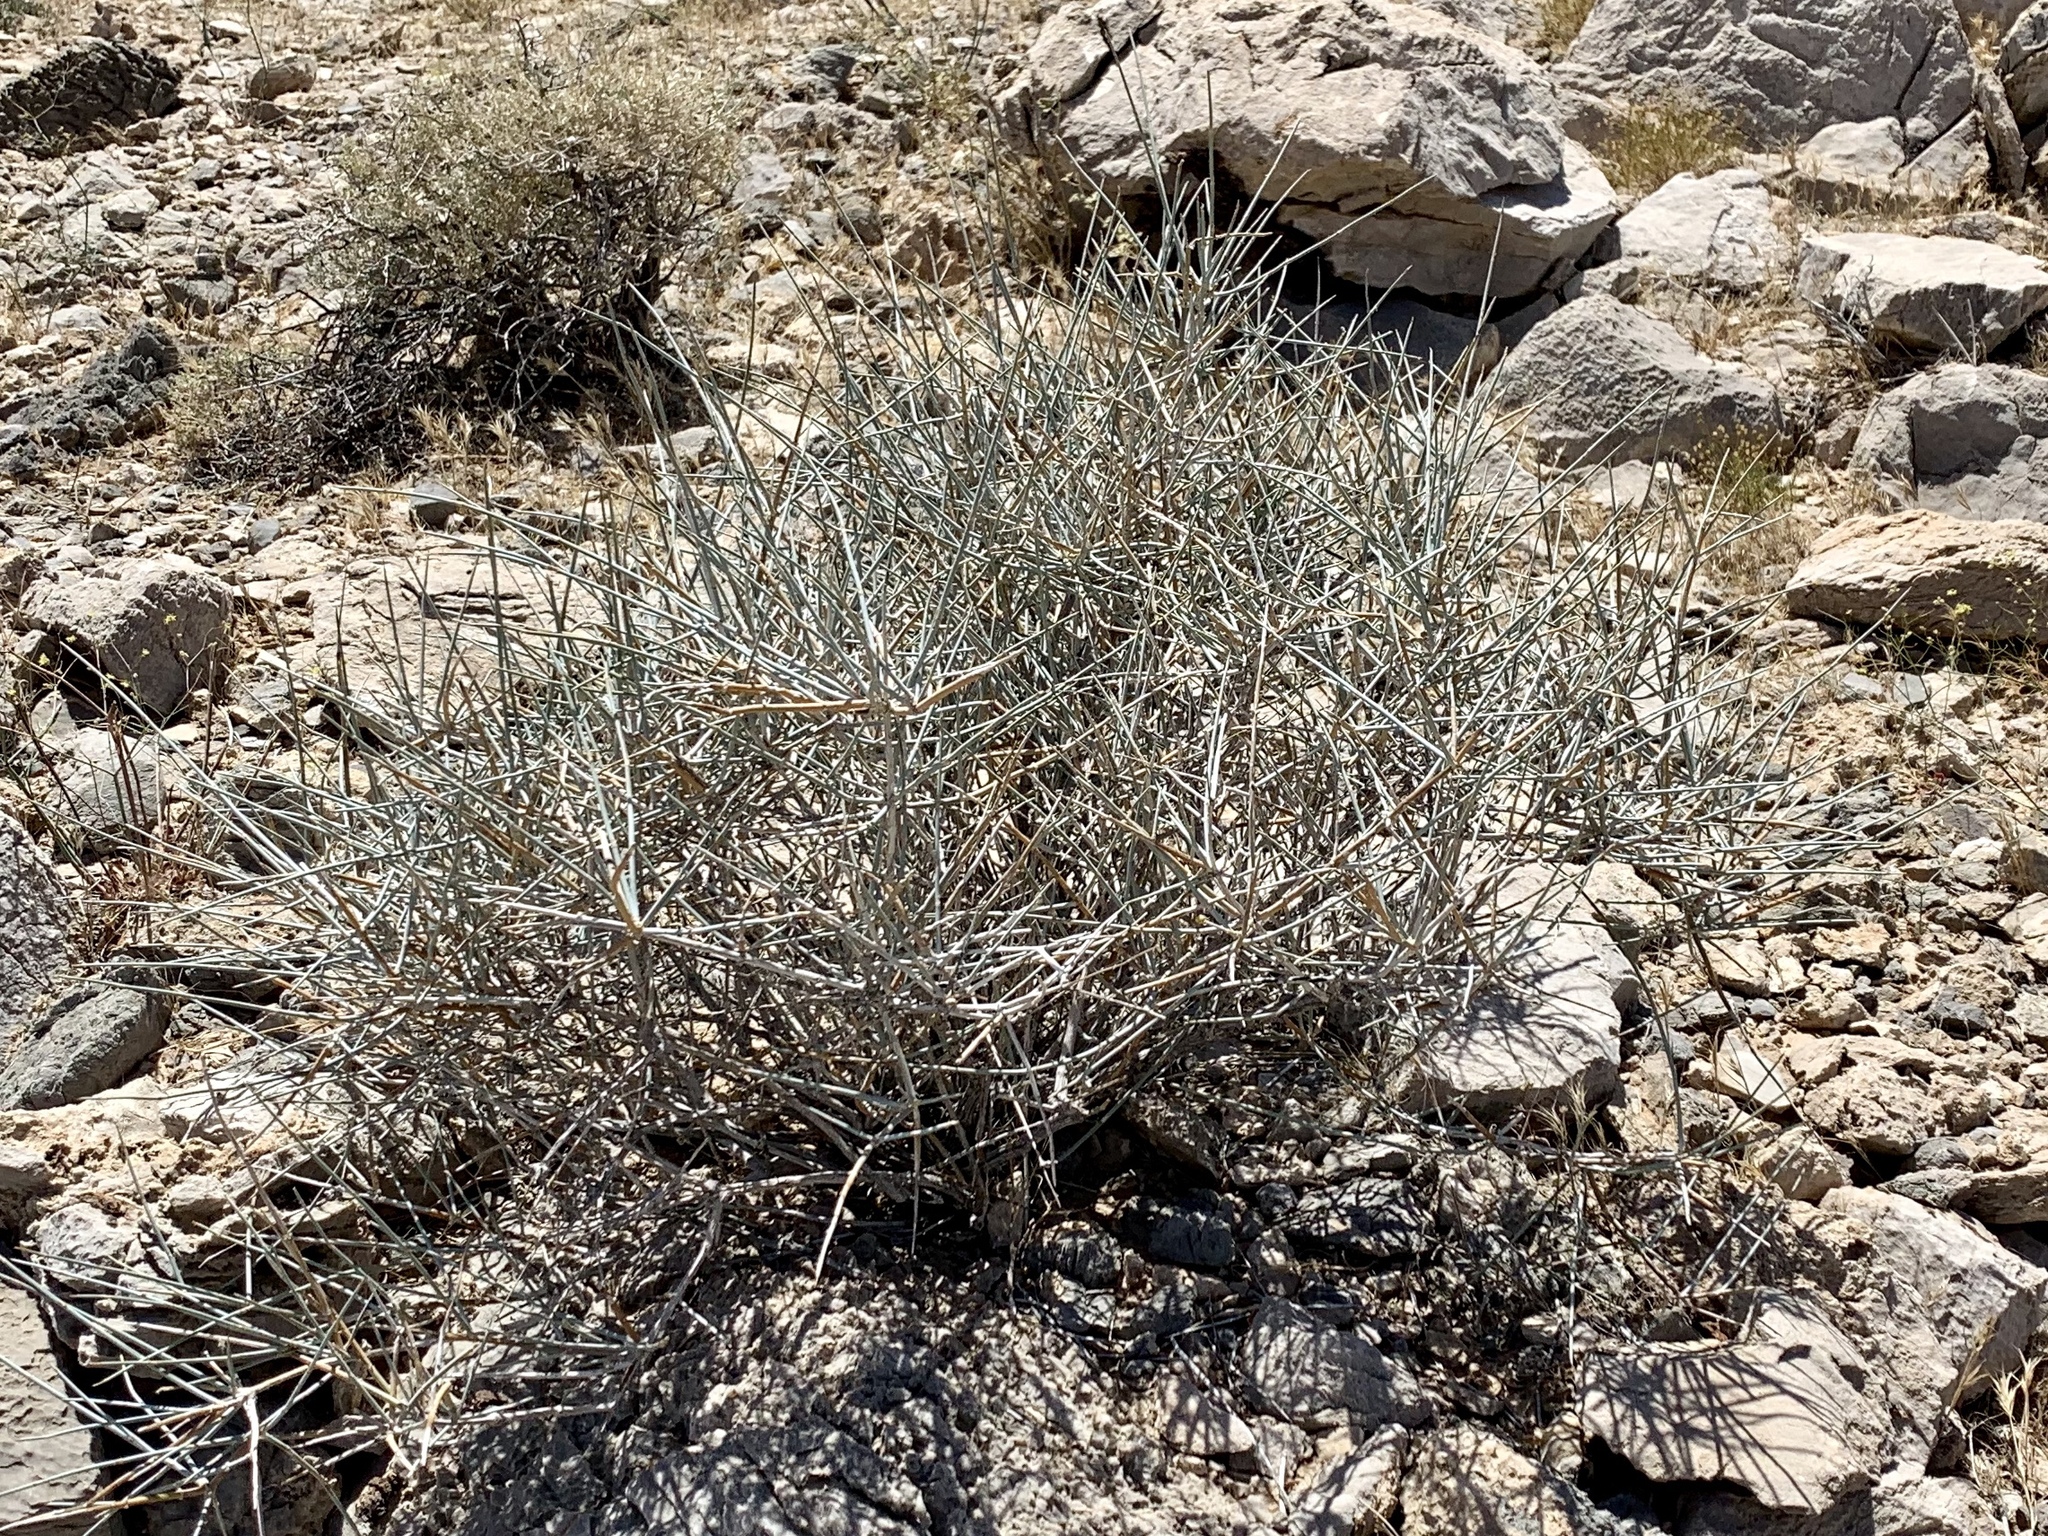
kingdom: Plantae
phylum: Tracheophyta
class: Gnetopsida
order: Ephedrales
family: Ephedraceae
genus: Ephedra
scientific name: Ephedra nevadensis
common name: Gray ephedra
